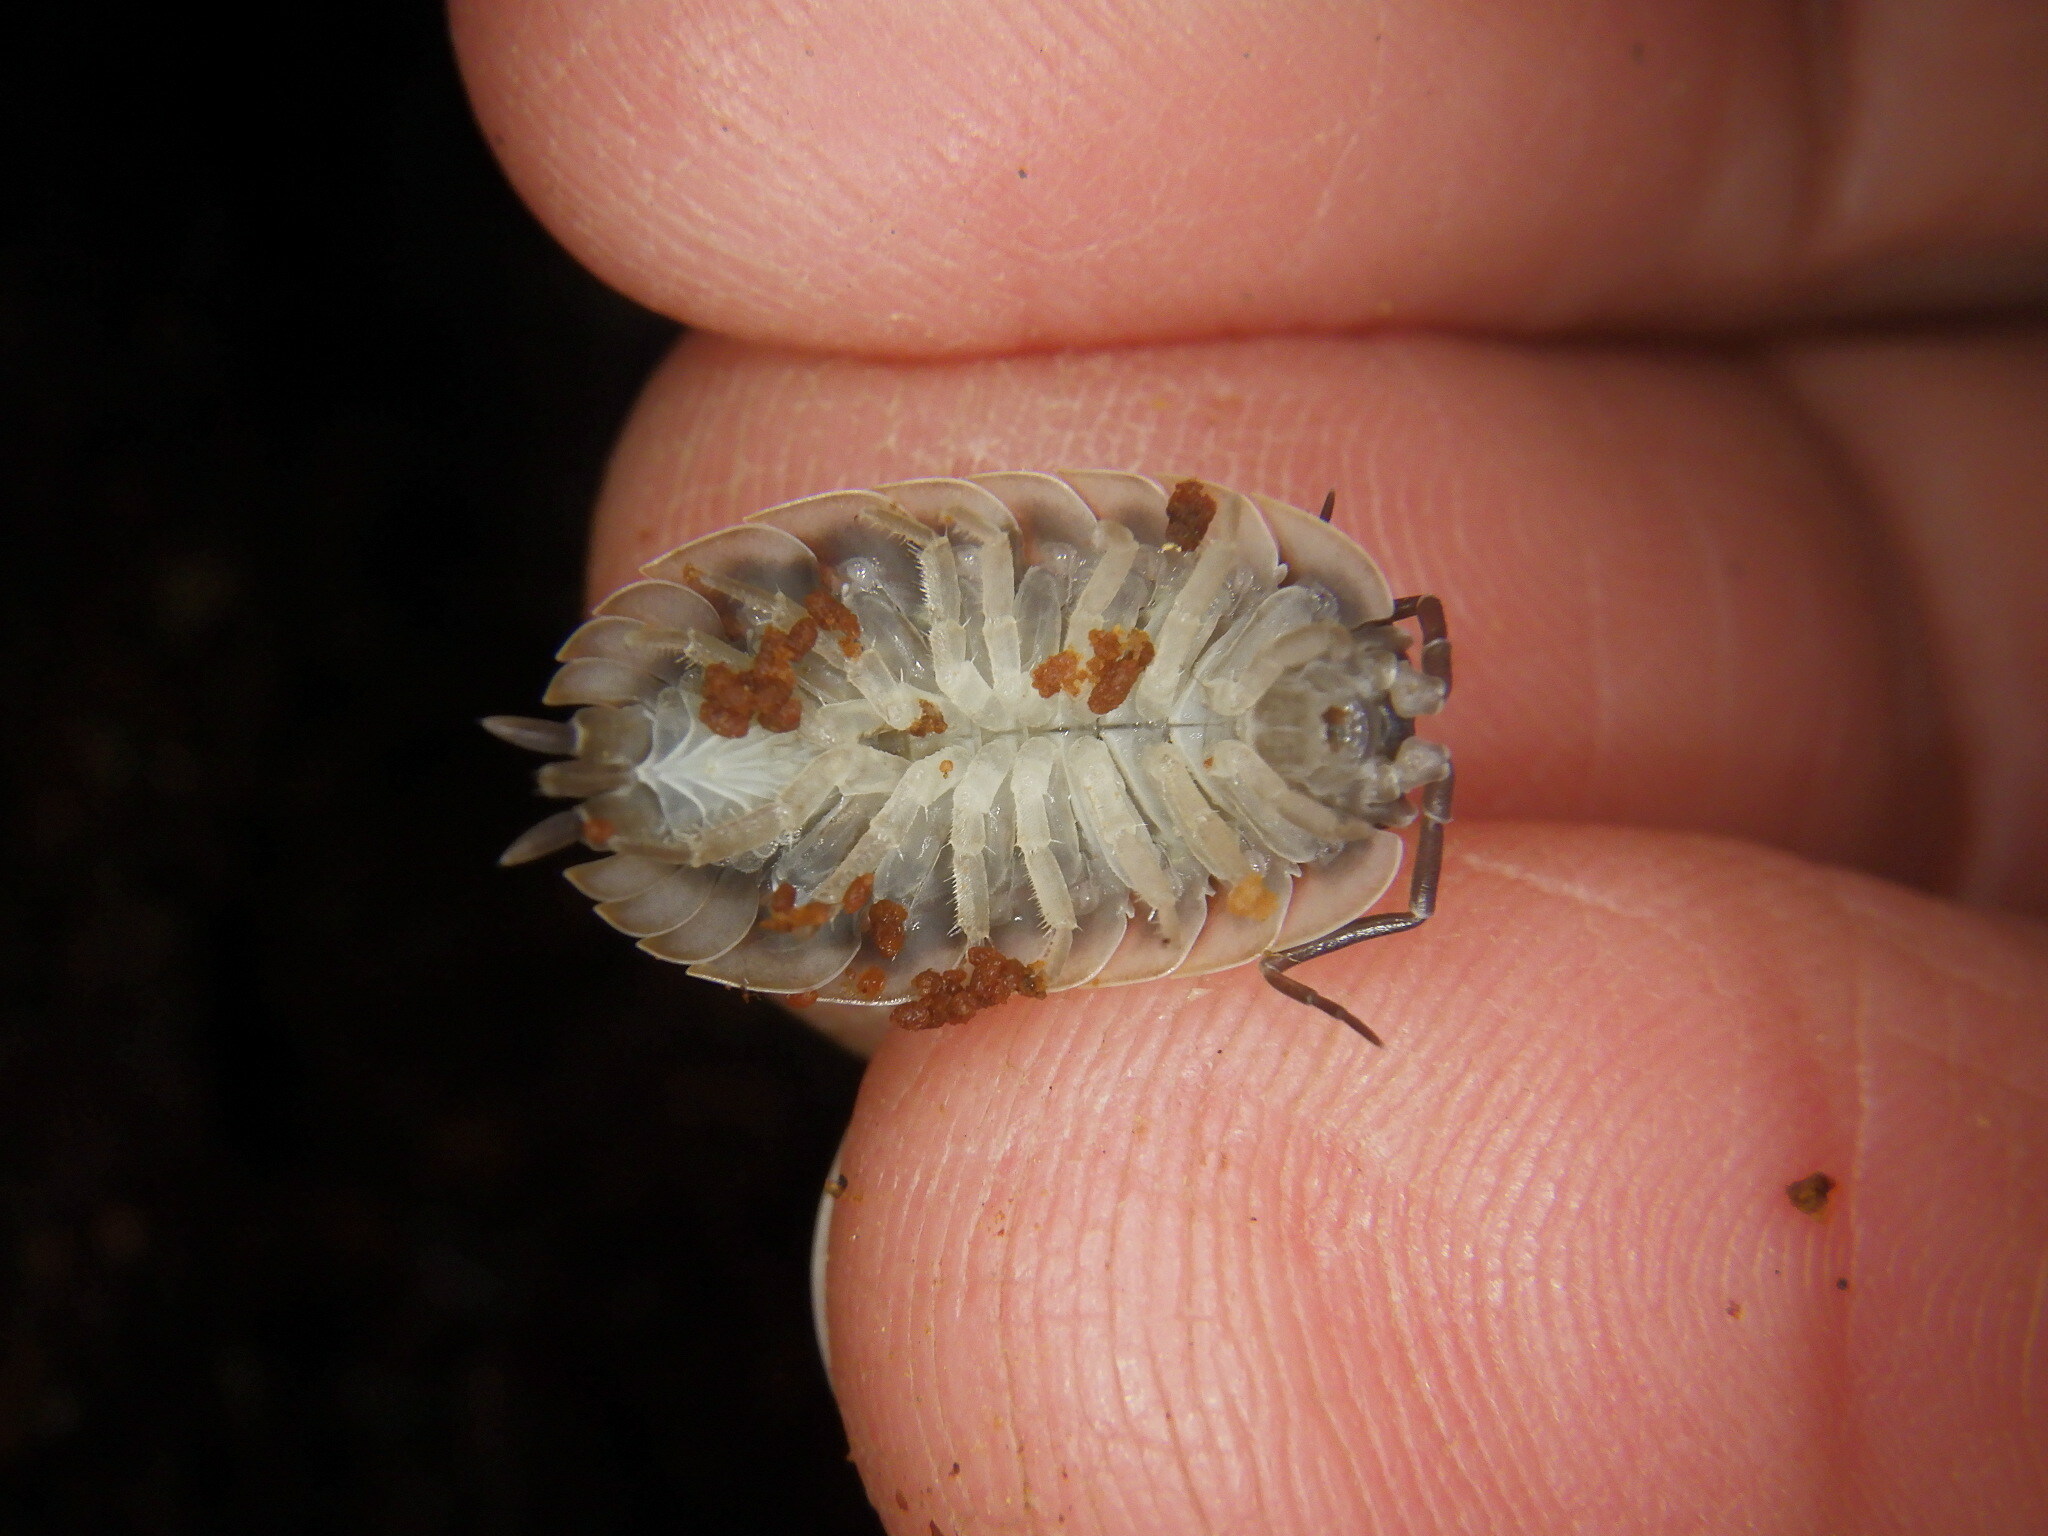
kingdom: Animalia
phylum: Arthropoda
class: Malacostraca
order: Isopoda
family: Oniscidae
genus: Oniscus
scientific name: Oniscus asellus
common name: Common shiny woodlouse
